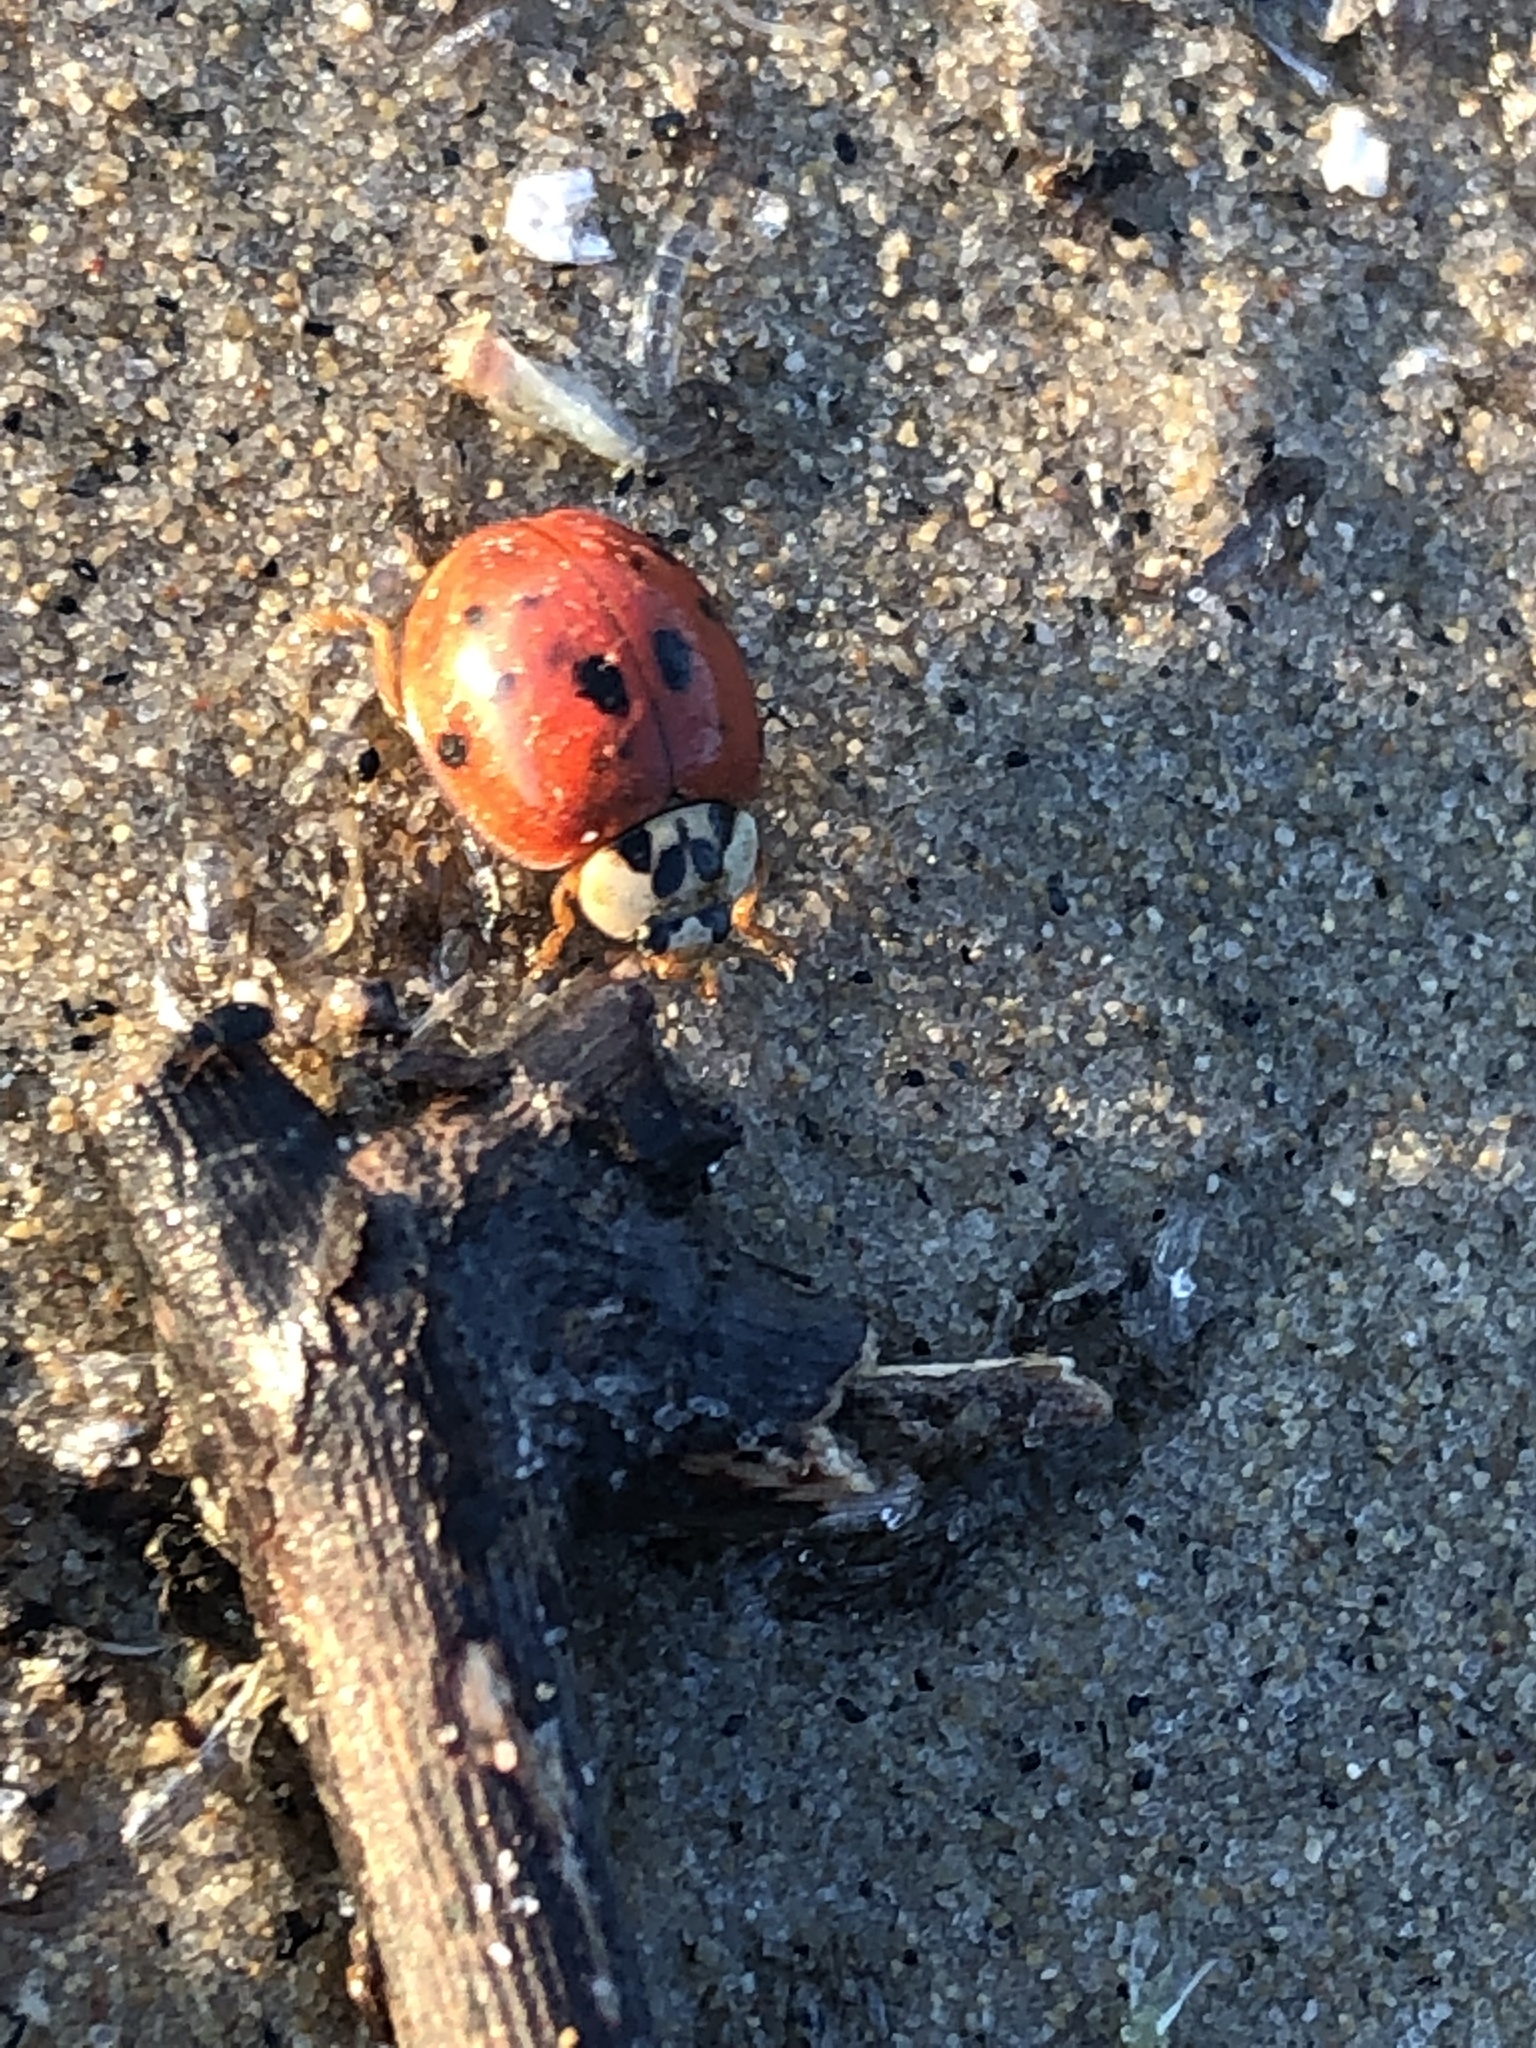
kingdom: Animalia
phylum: Arthropoda
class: Insecta
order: Coleoptera
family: Coccinellidae
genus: Harmonia
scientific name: Harmonia axyridis
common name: Harlequin ladybird
